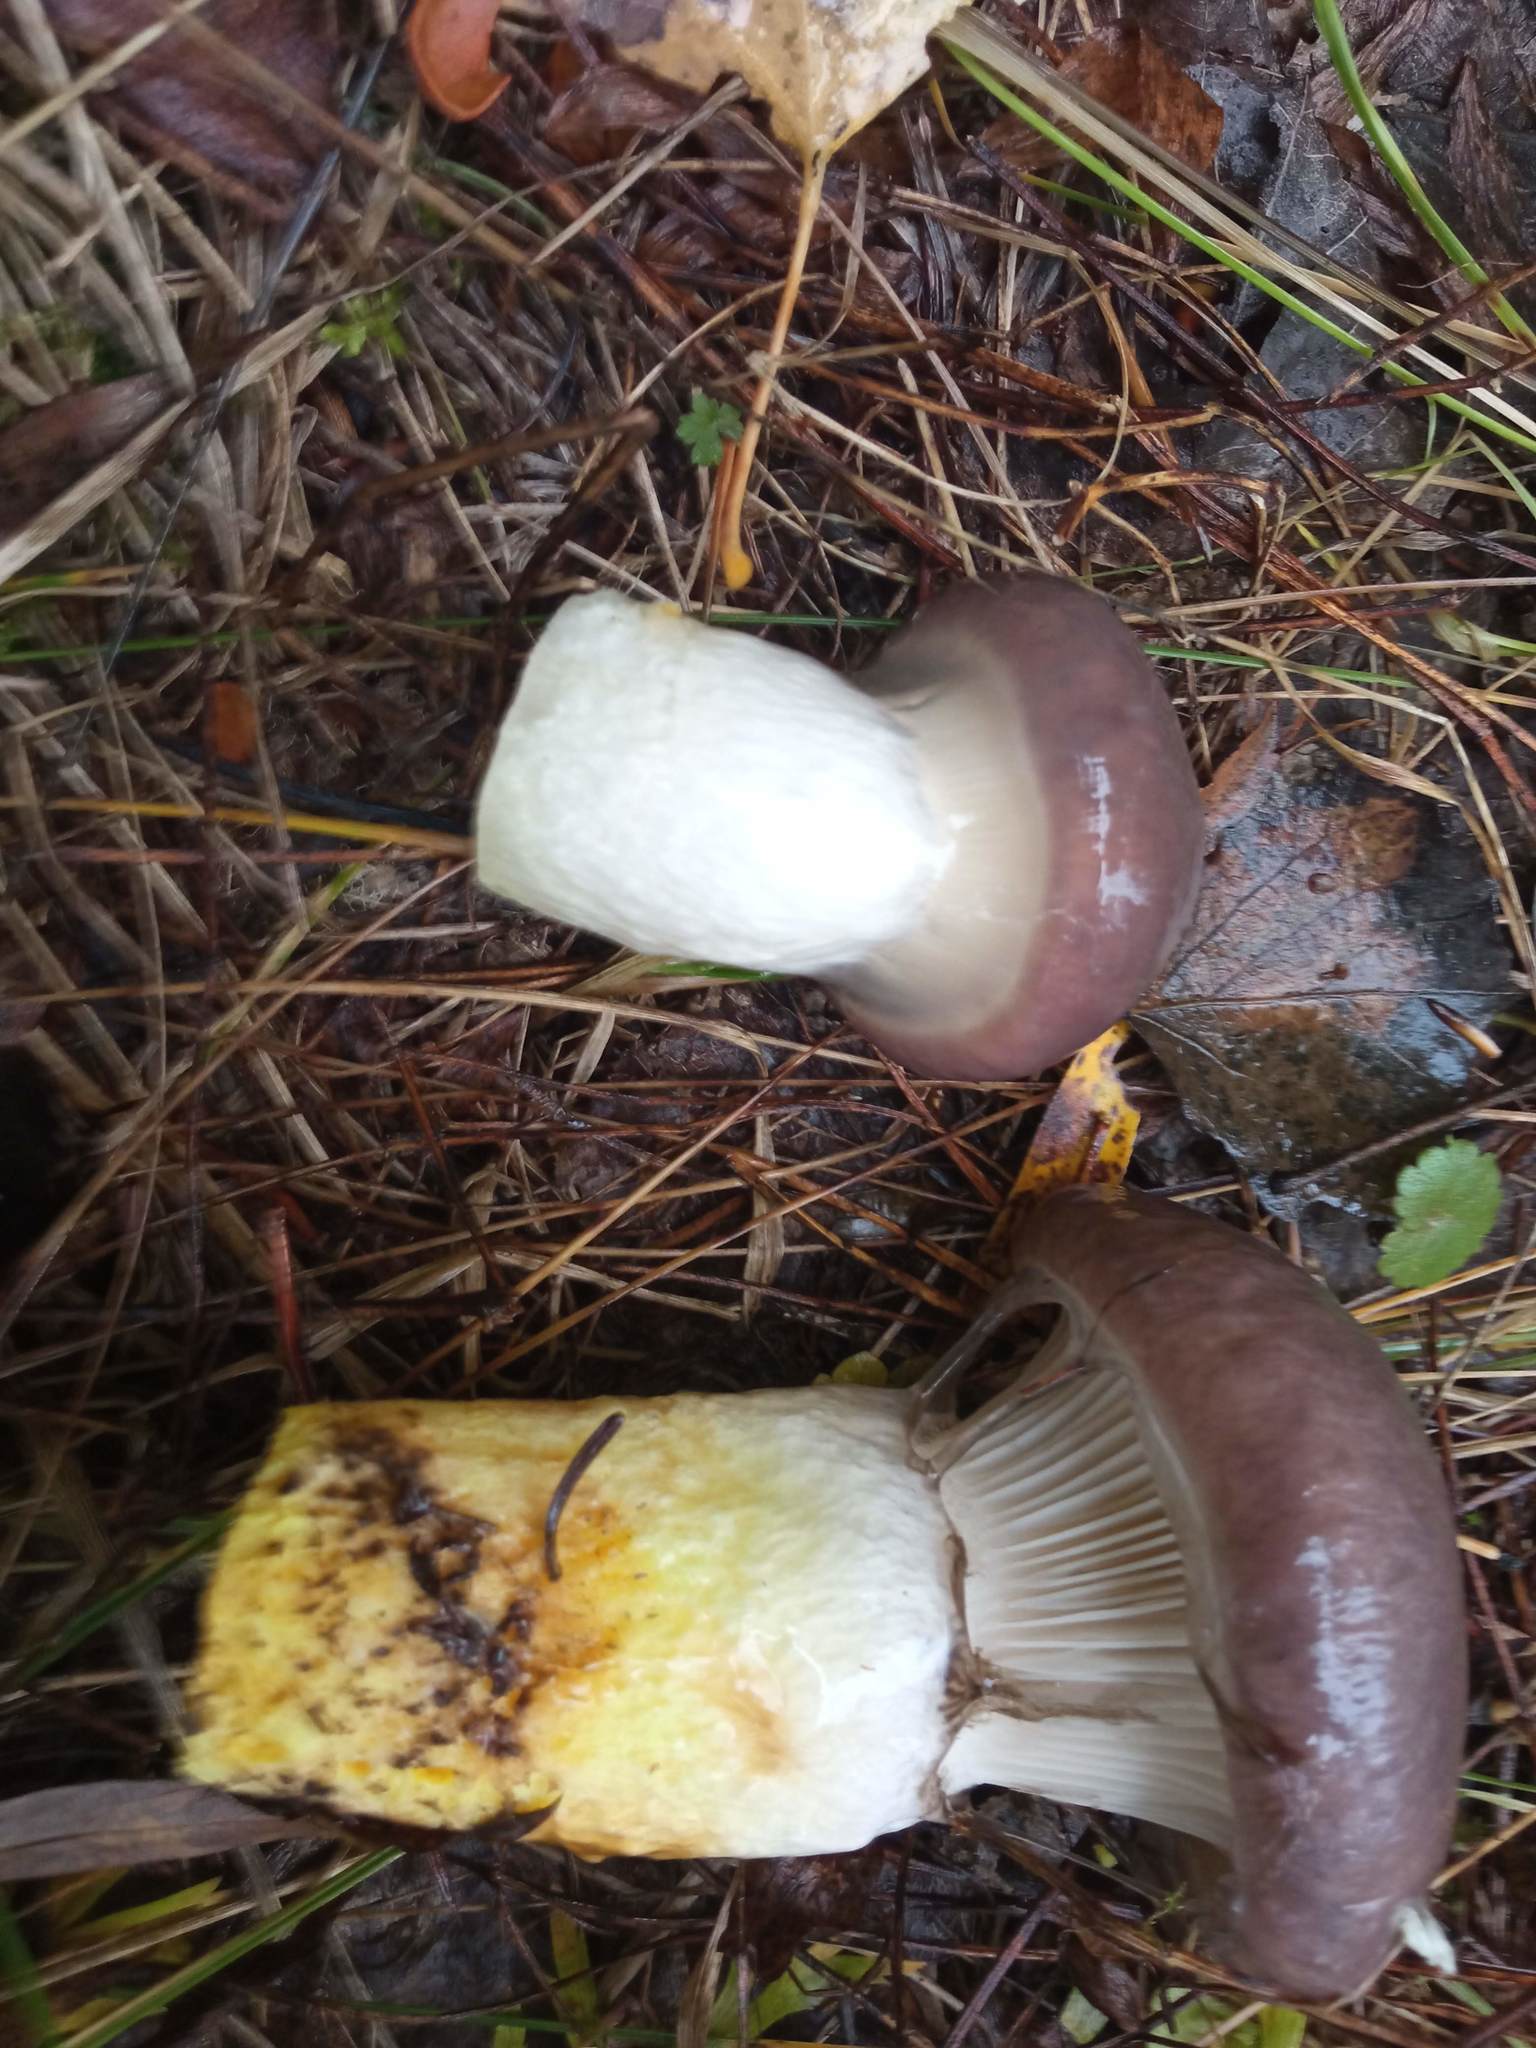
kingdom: Fungi
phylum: Basidiomycota
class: Agaricomycetes
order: Boletales
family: Gomphidiaceae
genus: Gomphidius
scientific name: Gomphidius glutinosus
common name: Slimy spike
